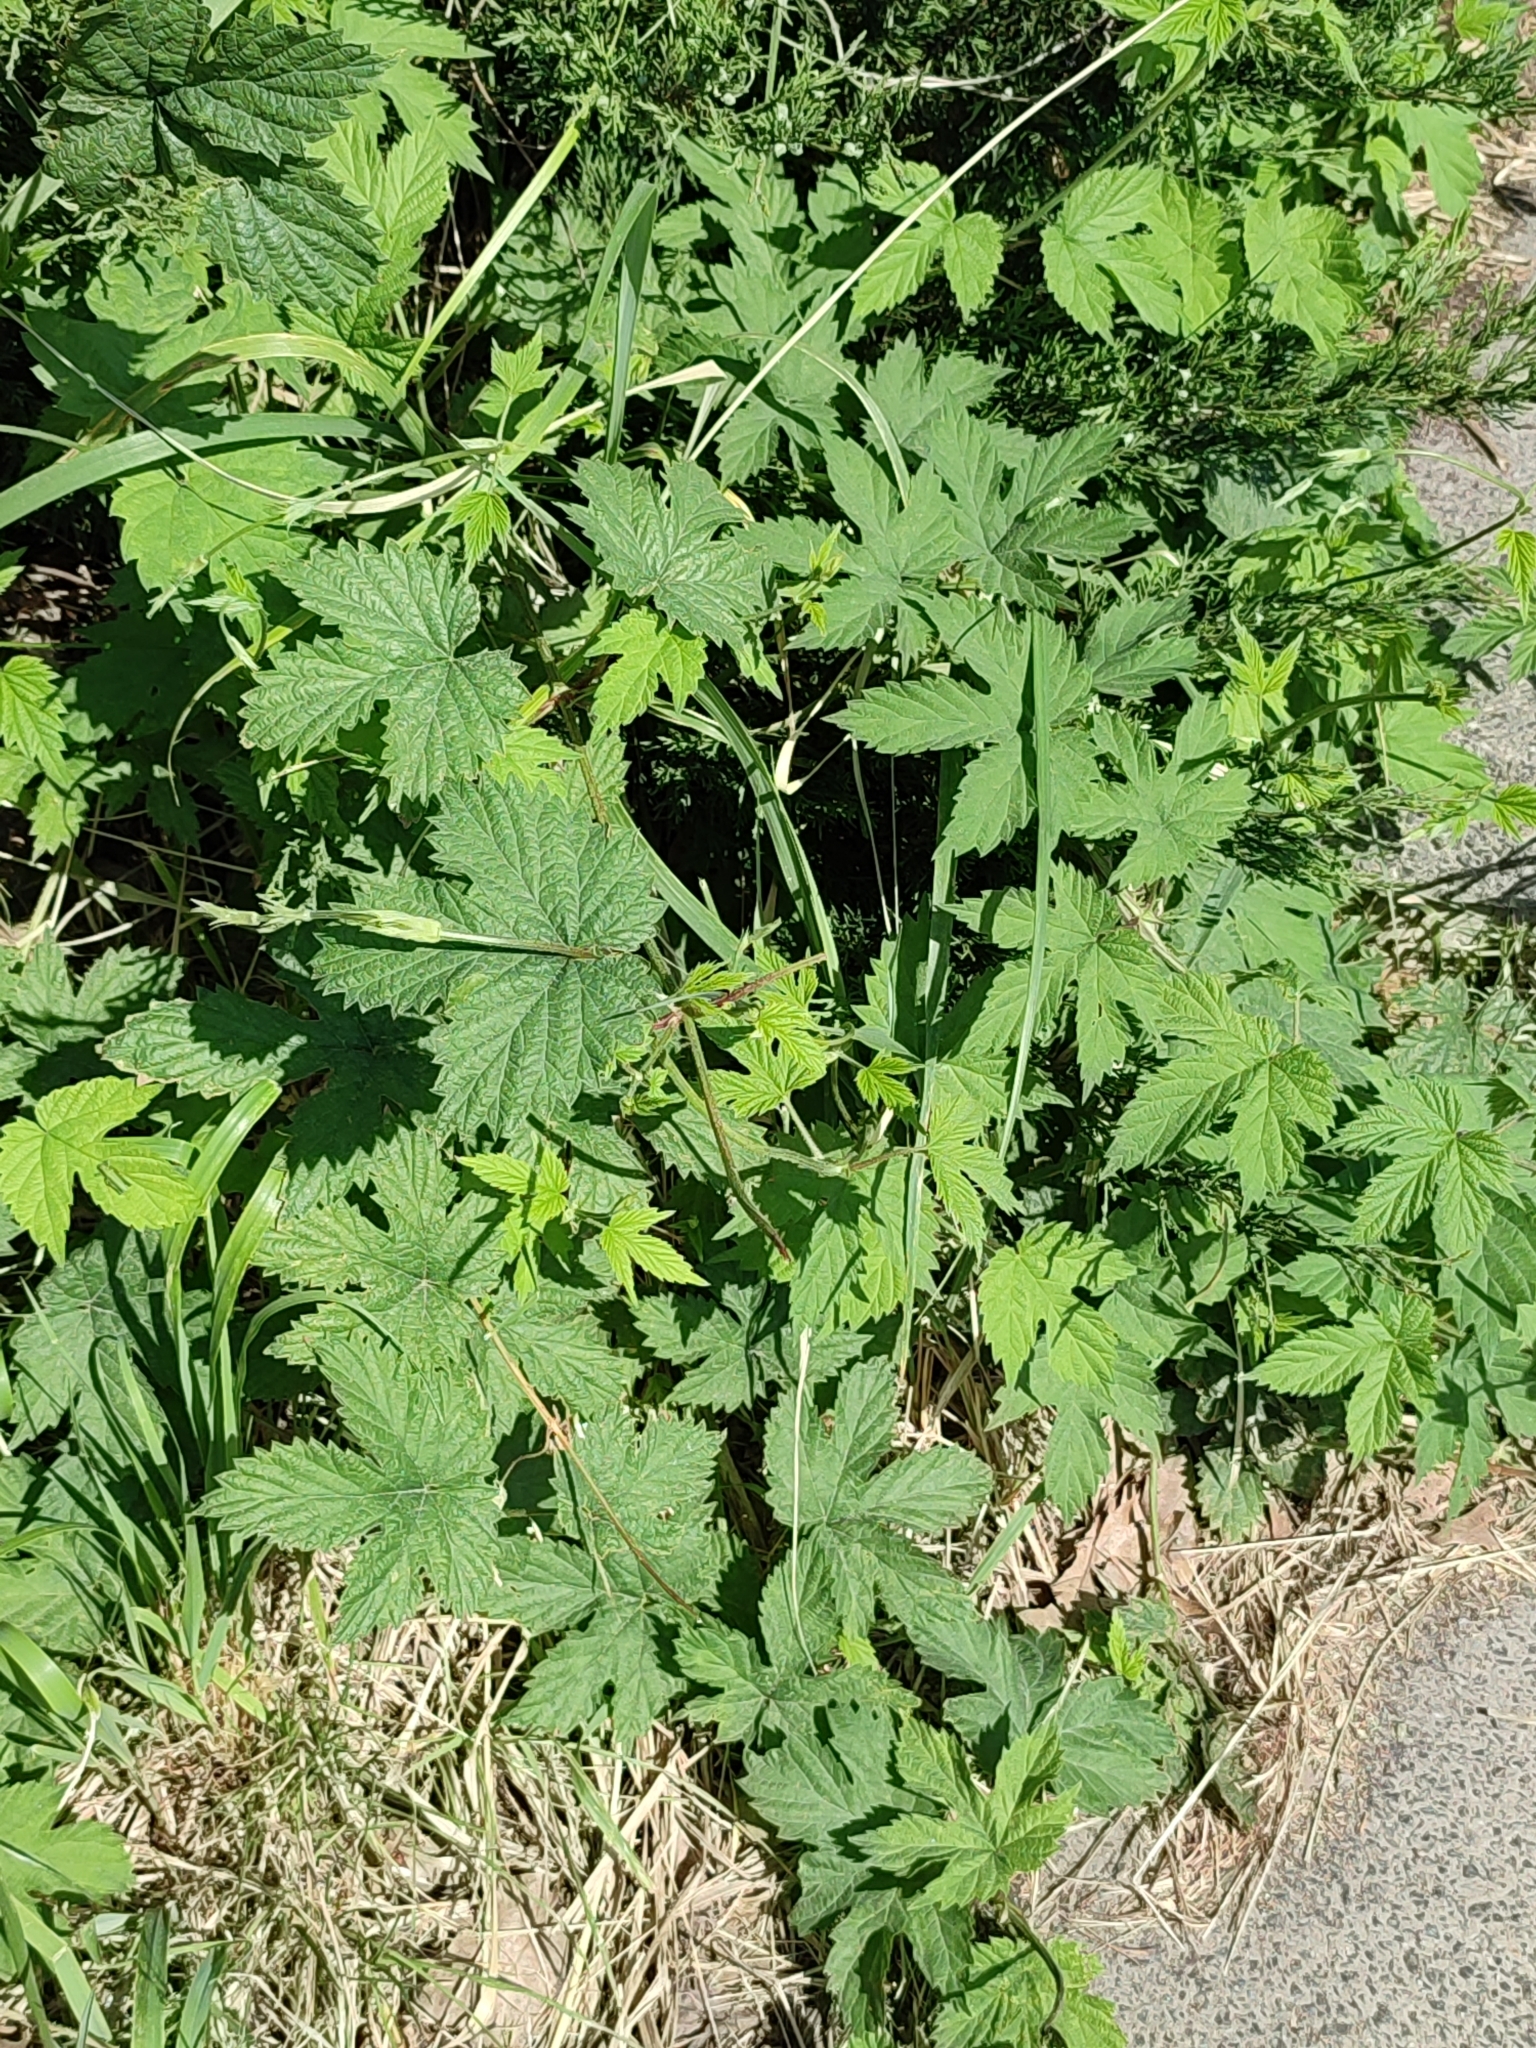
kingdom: Plantae
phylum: Tracheophyta
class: Magnoliopsida
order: Rosales
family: Cannabaceae
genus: Humulus
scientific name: Humulus lupulus
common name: Hop
